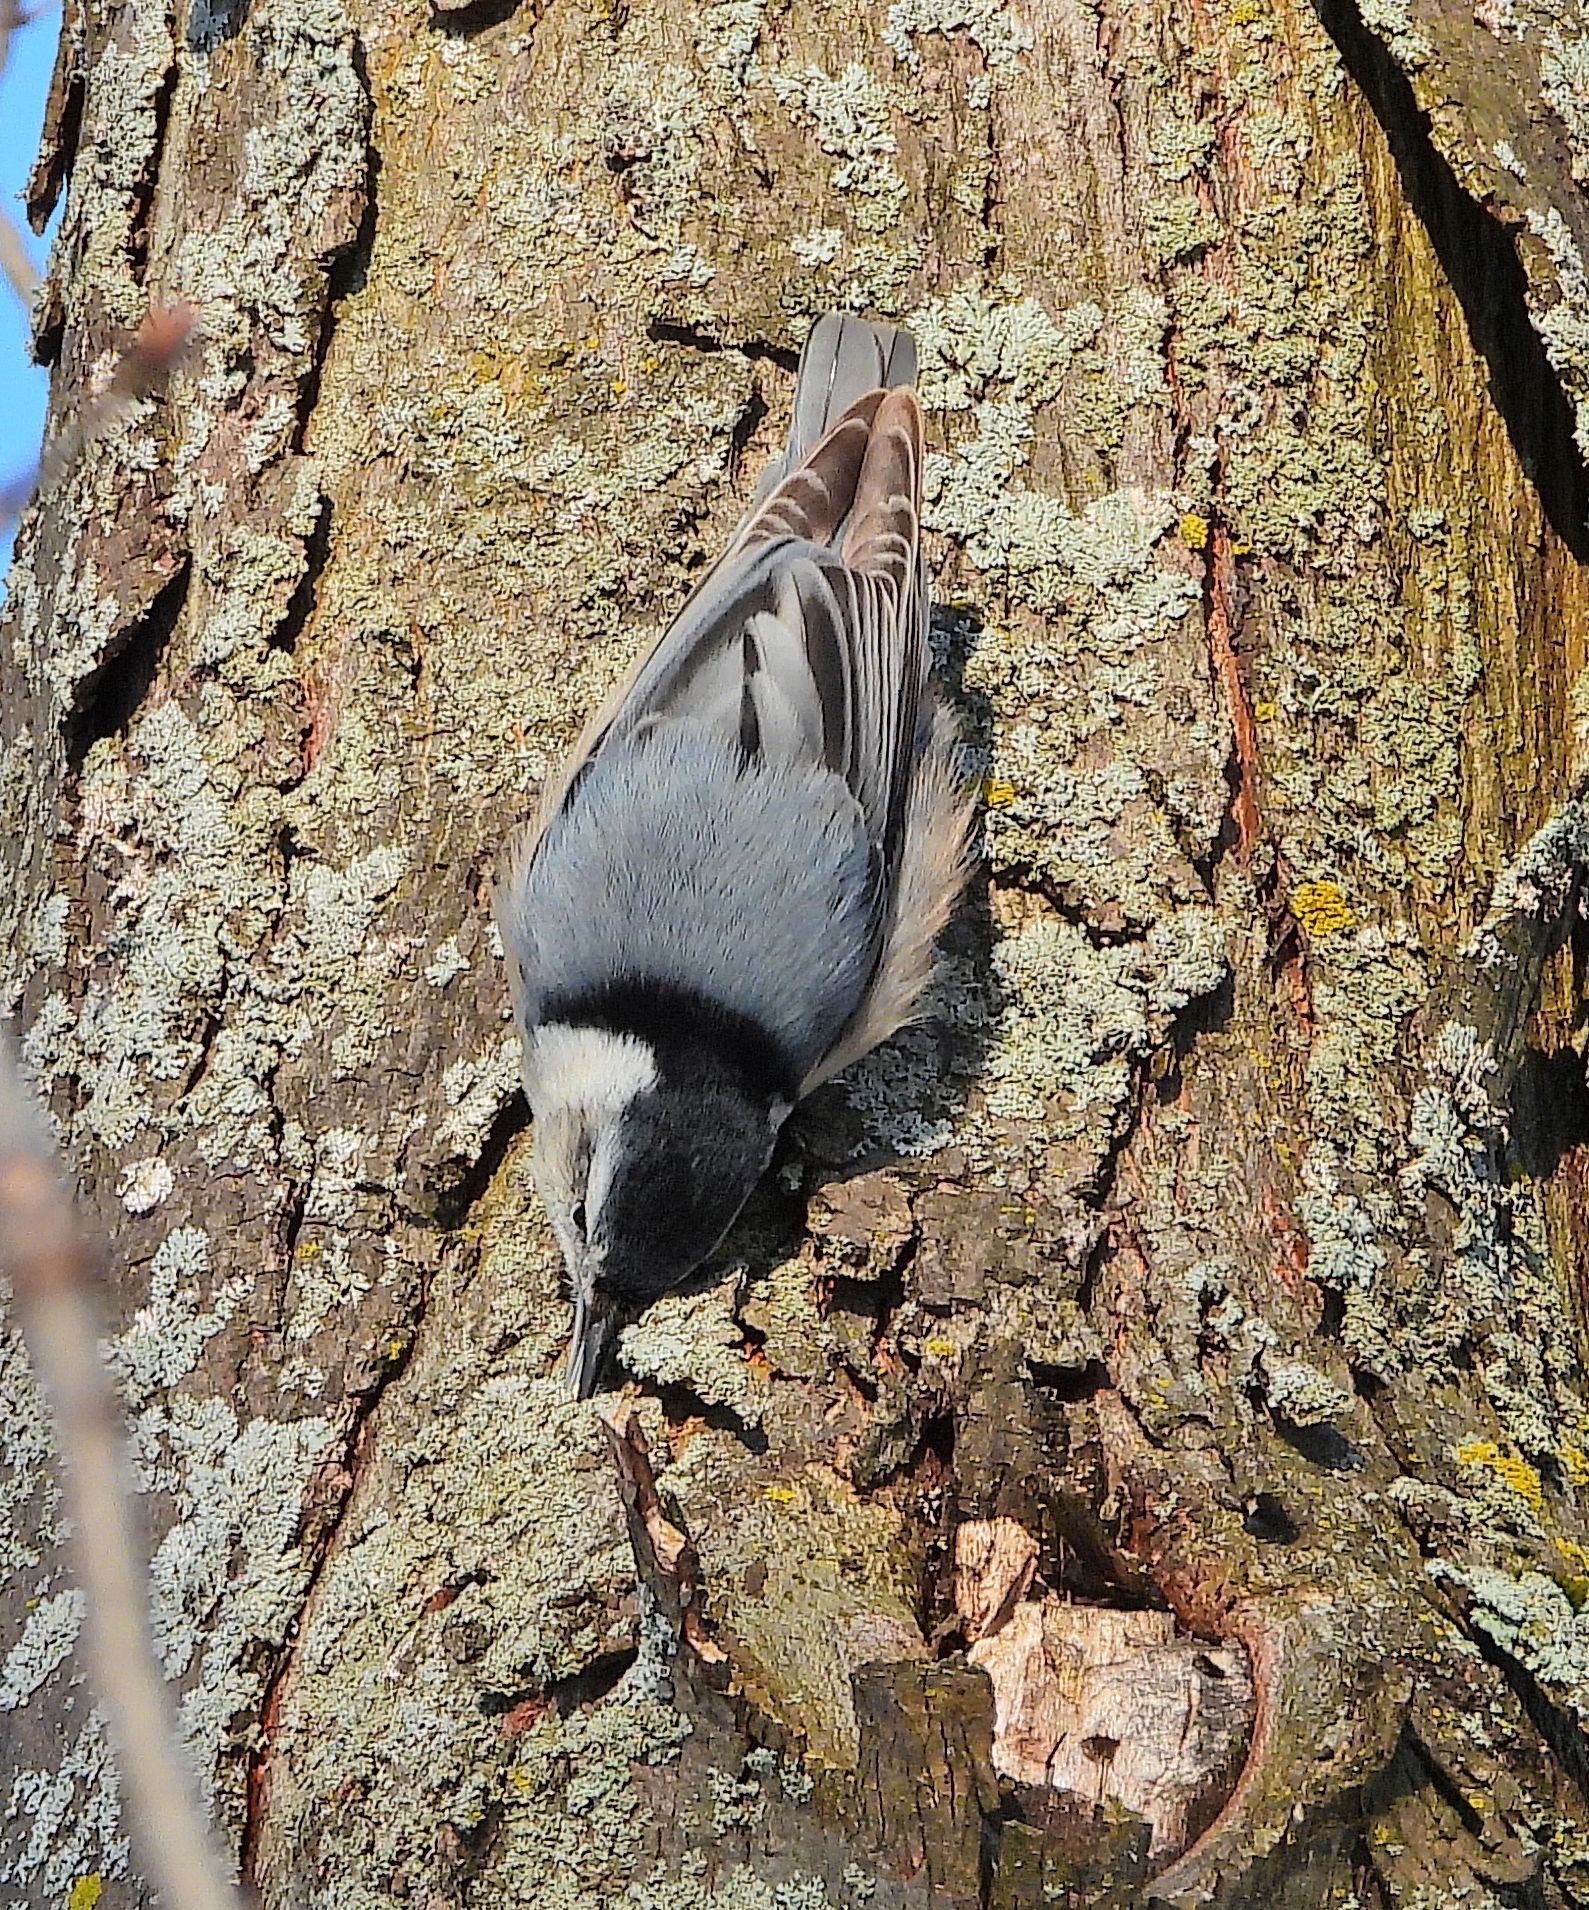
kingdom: Animalia
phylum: Chordata
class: Aves
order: Passeriformes
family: Sittidae
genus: Sitta
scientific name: Sitta carolinensis
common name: White-breasted nuthatch
